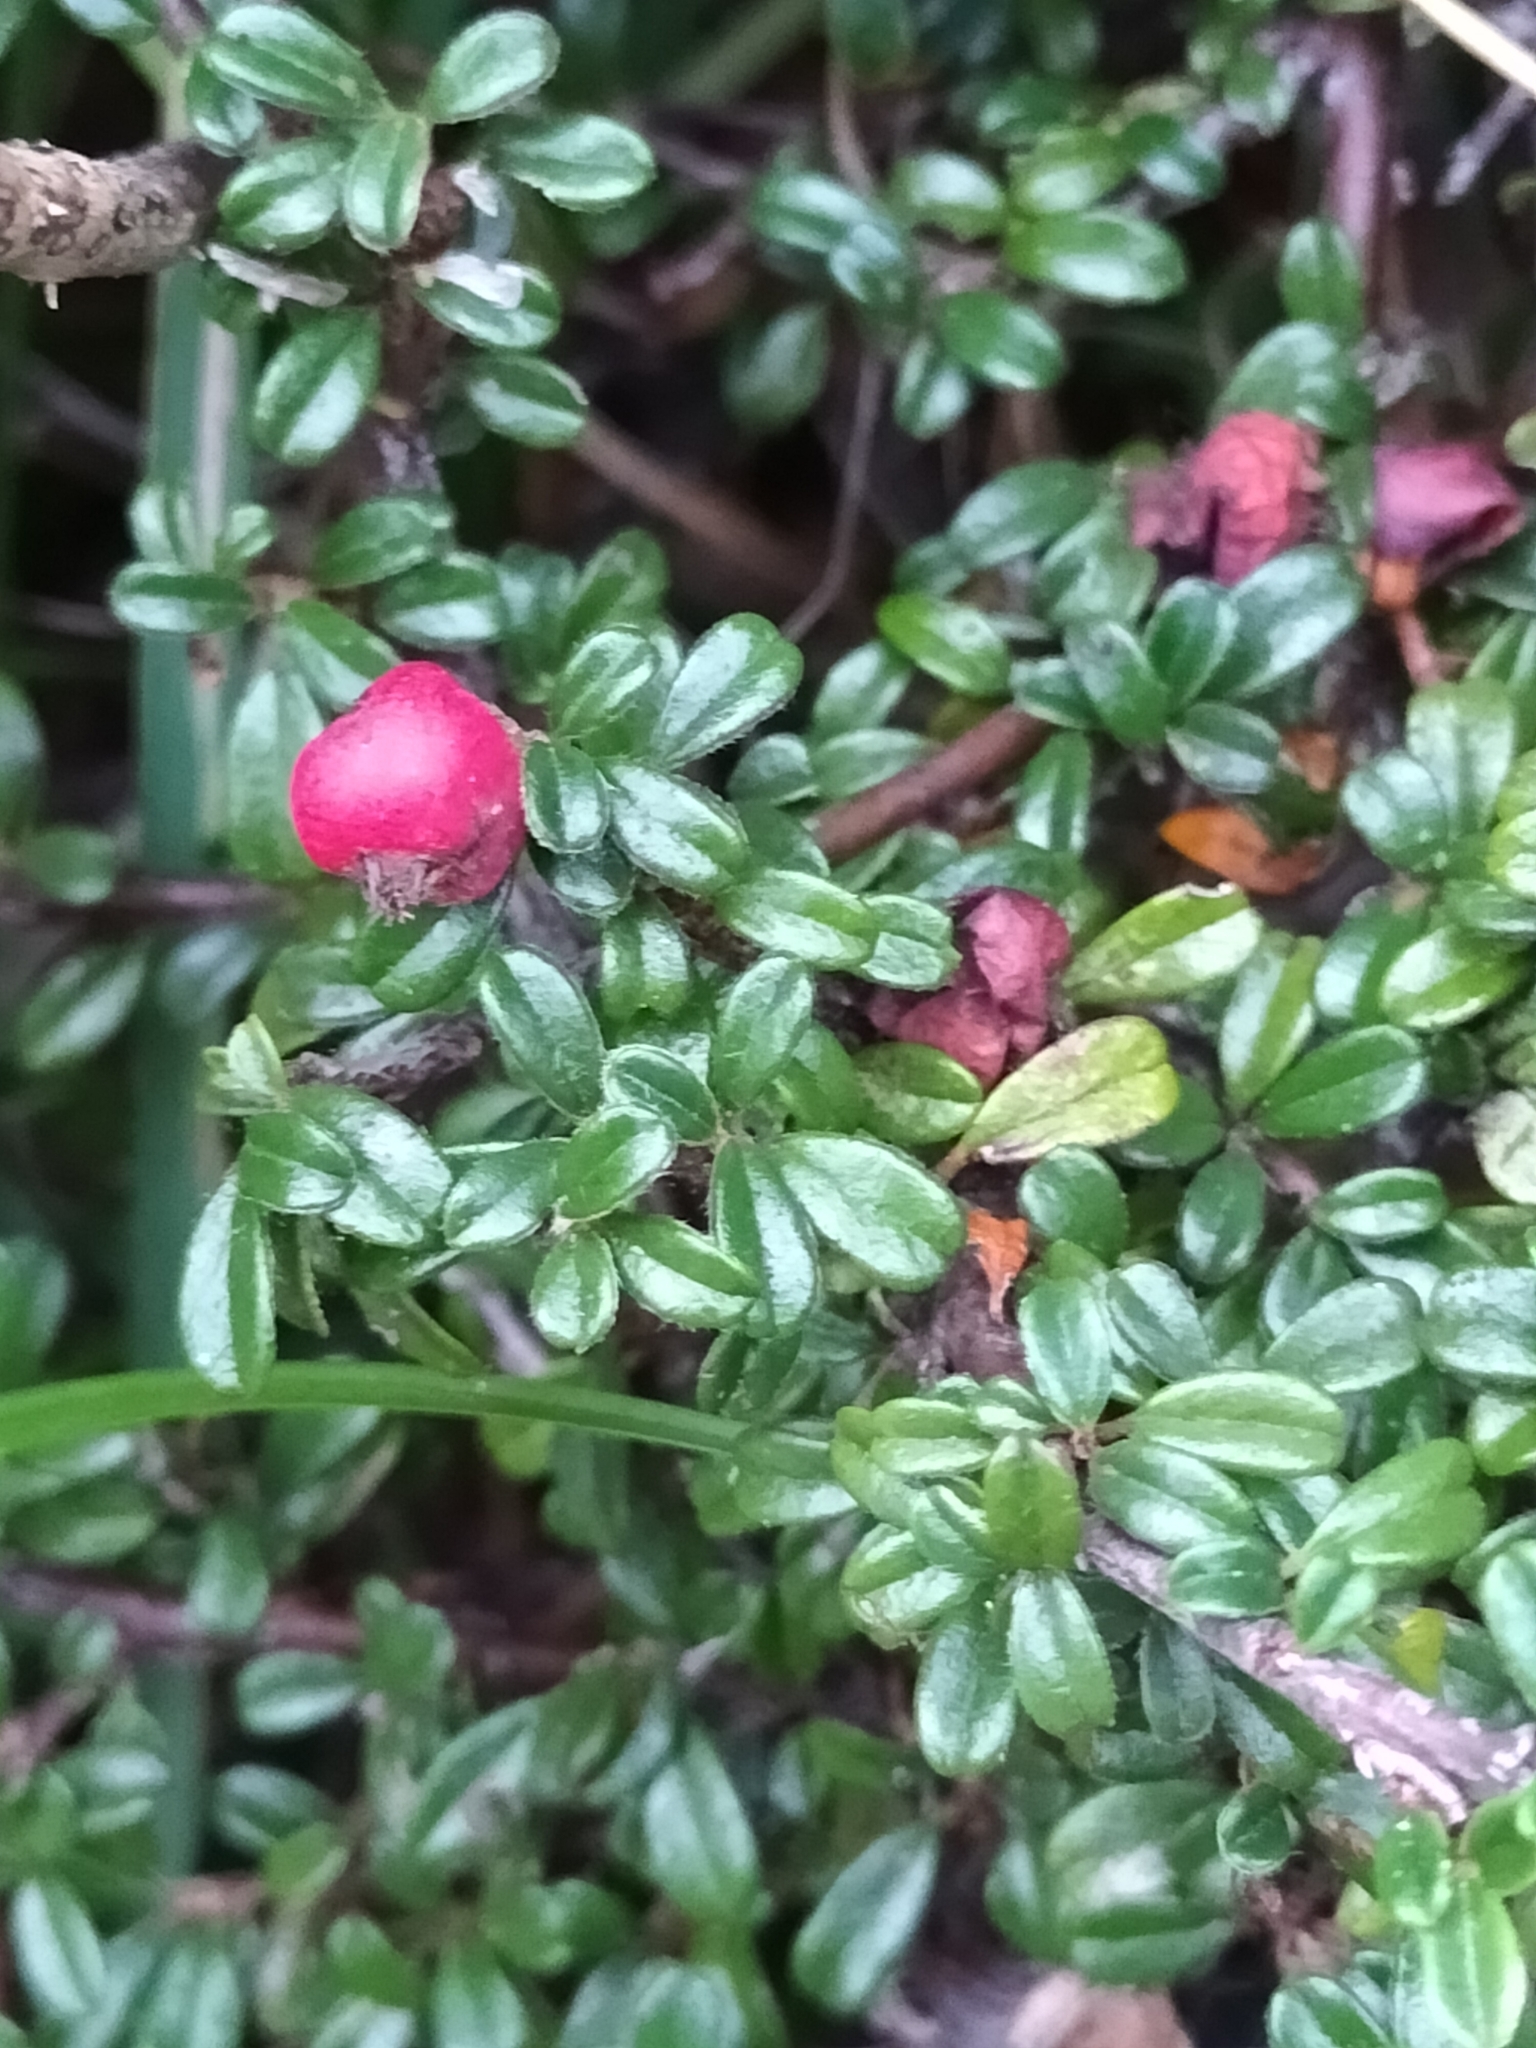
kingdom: Plantae
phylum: Tracheophyta
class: Magnoliopsida
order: Rosales
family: Rosaceae
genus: Cotoneaster
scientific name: Cotoneaster microphyllus
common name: Small-leaved cotoneaster
